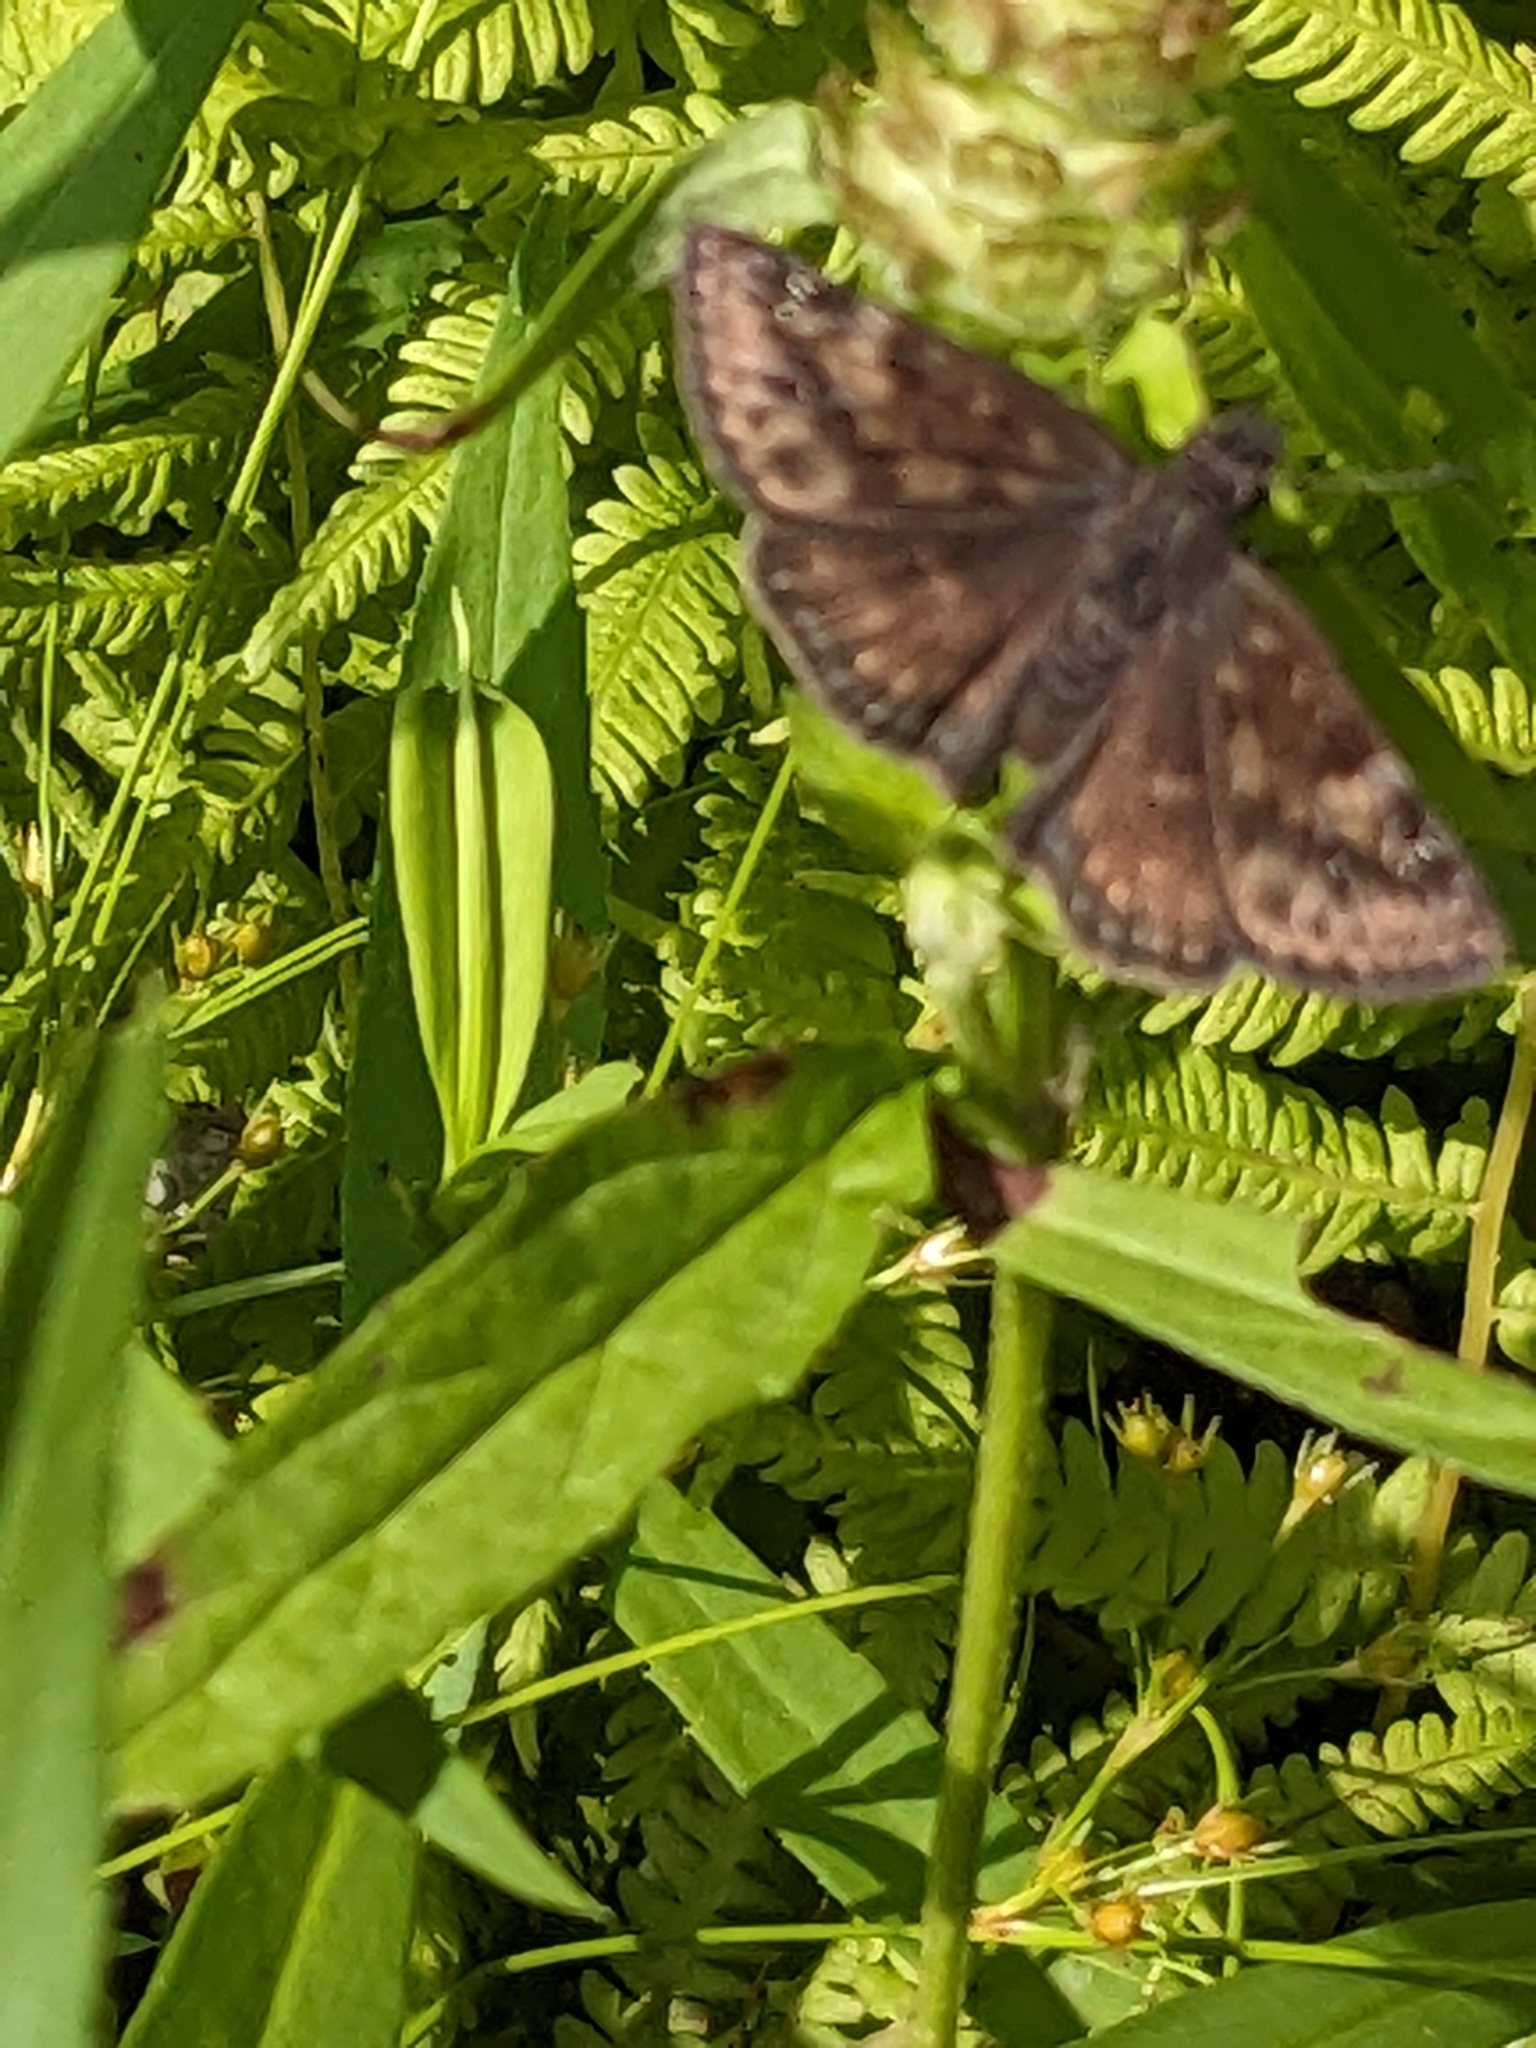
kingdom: Animalia
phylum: Arthropoda
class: Insecta
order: Lepidoptera
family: Hesperiidae
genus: Erynnis
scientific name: Erynnis baptisiae
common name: Wild indigo duskywing
